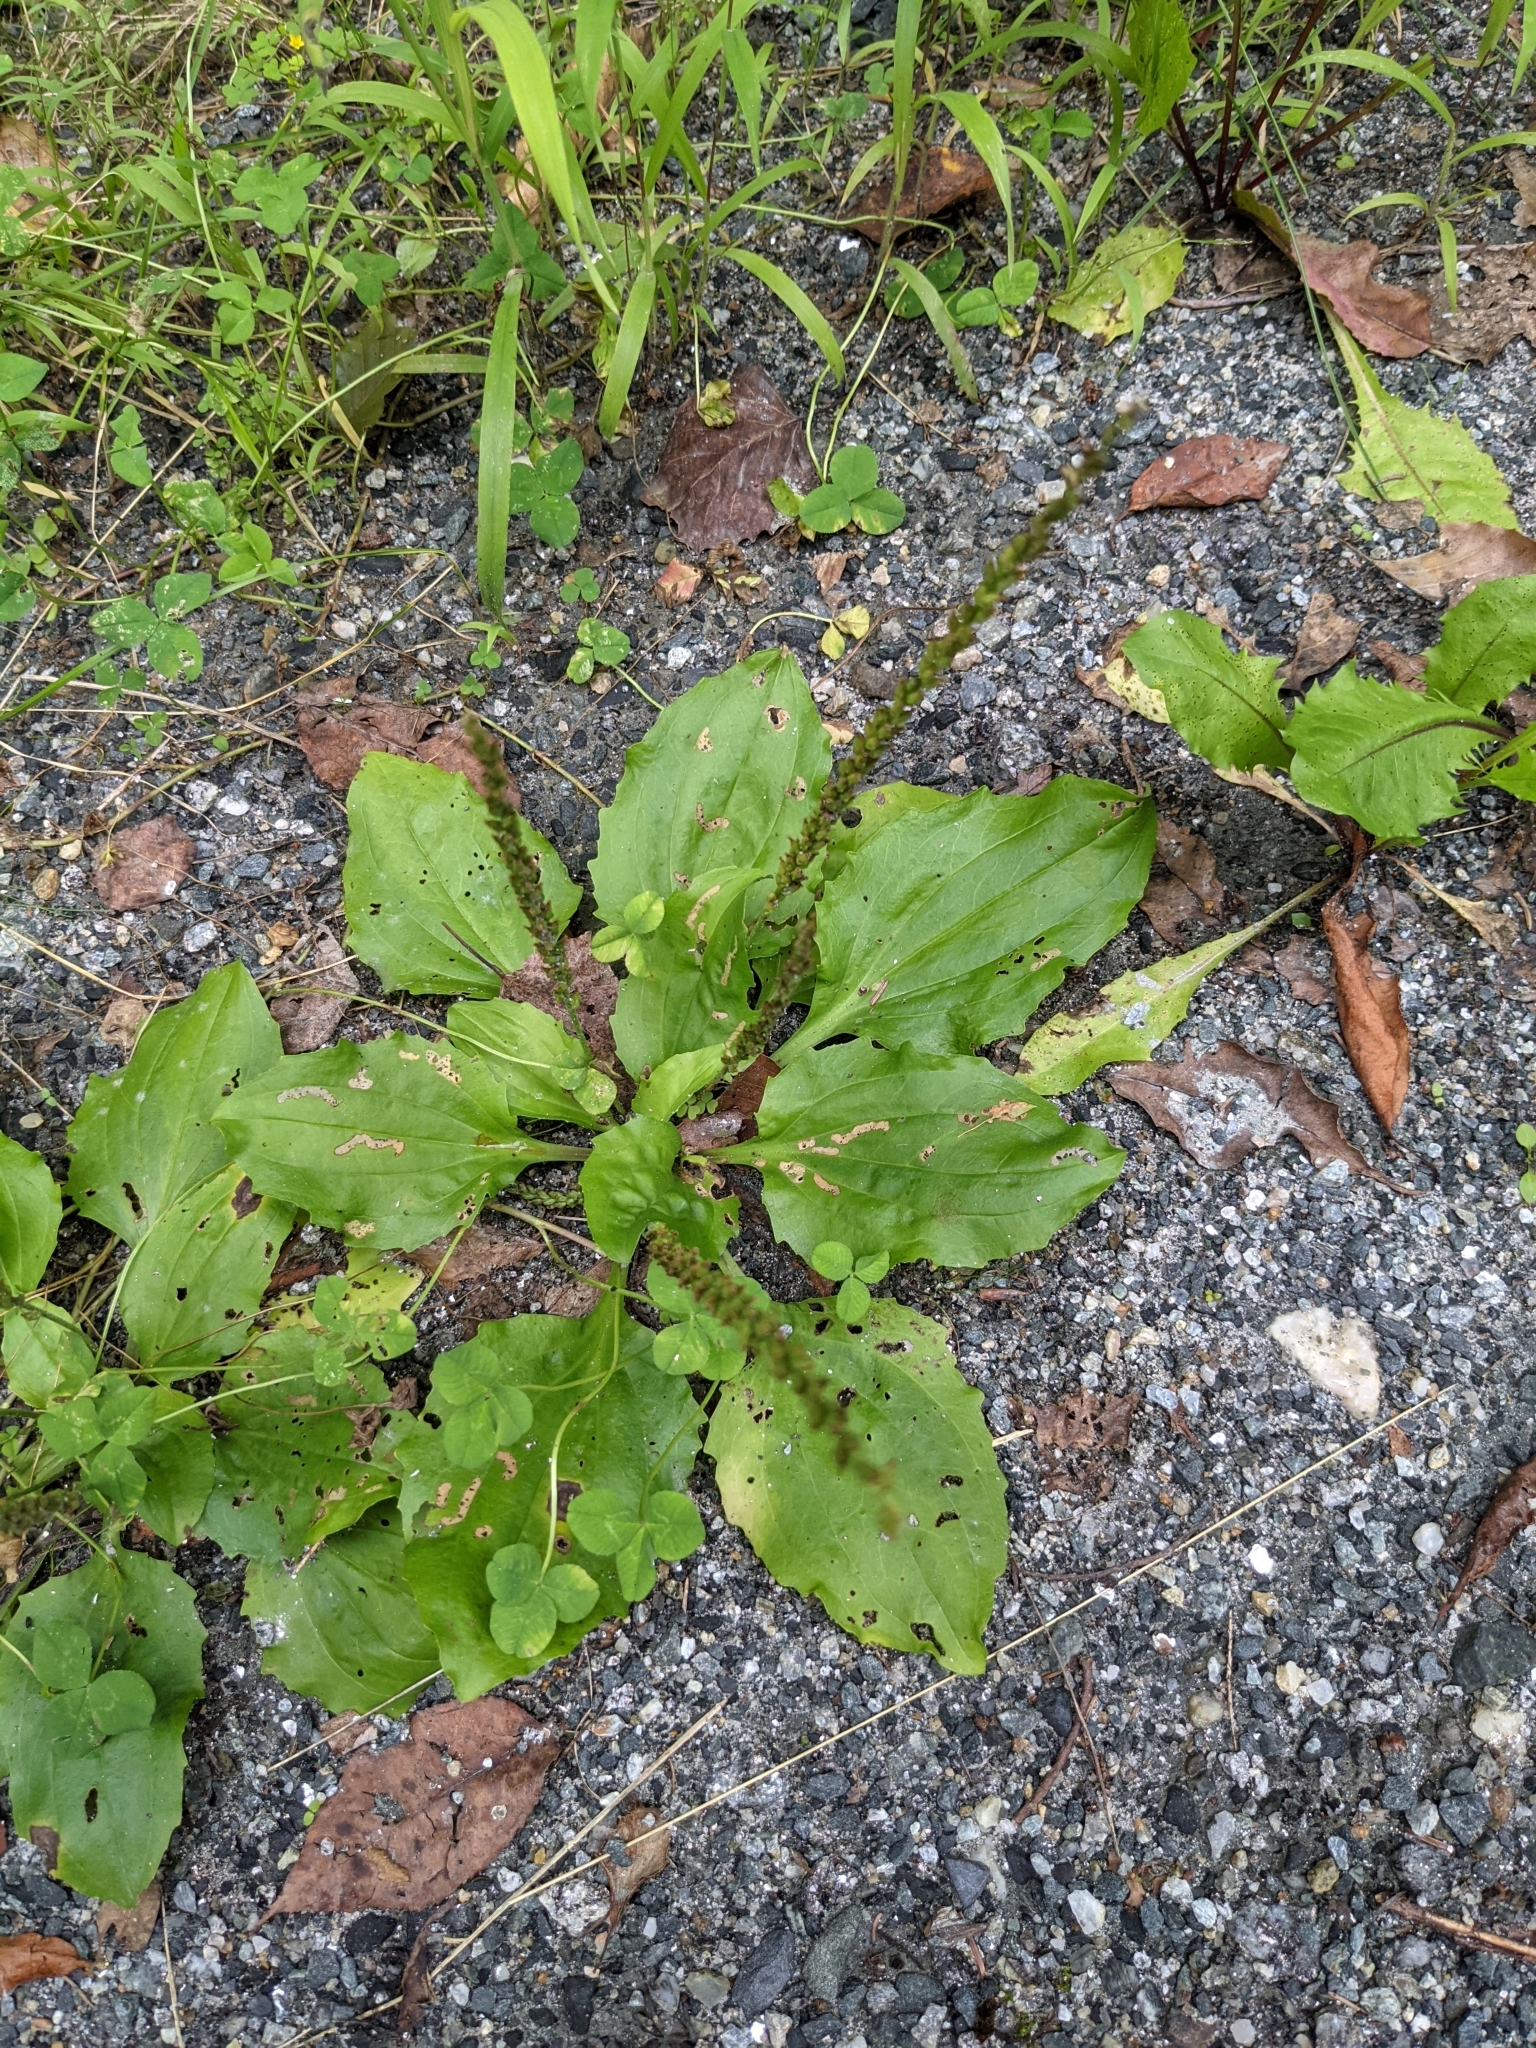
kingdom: Plantae
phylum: Tracheophyta
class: Magnoliopsida
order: Lamiales
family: Plantaginaceae
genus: Plantago
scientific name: Plantago rugelii
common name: American plantain
